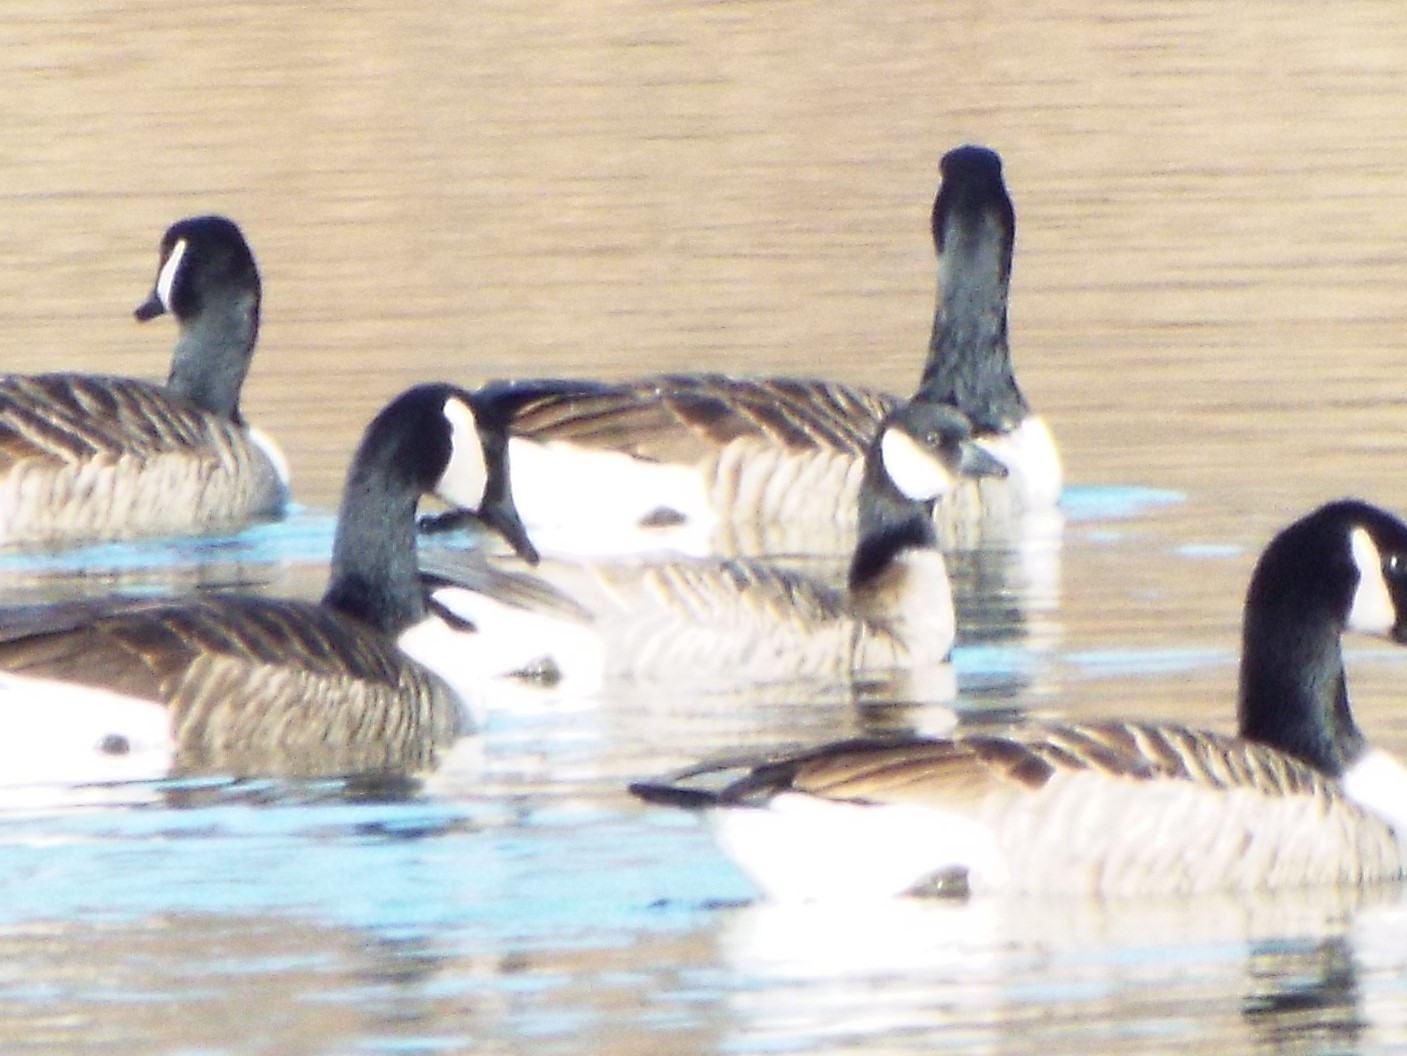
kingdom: Animalia
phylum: Chordata
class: Aves
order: Anseriformes
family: Anatidae
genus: Branta
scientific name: Branta hutchinsii
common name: Cackling goose
